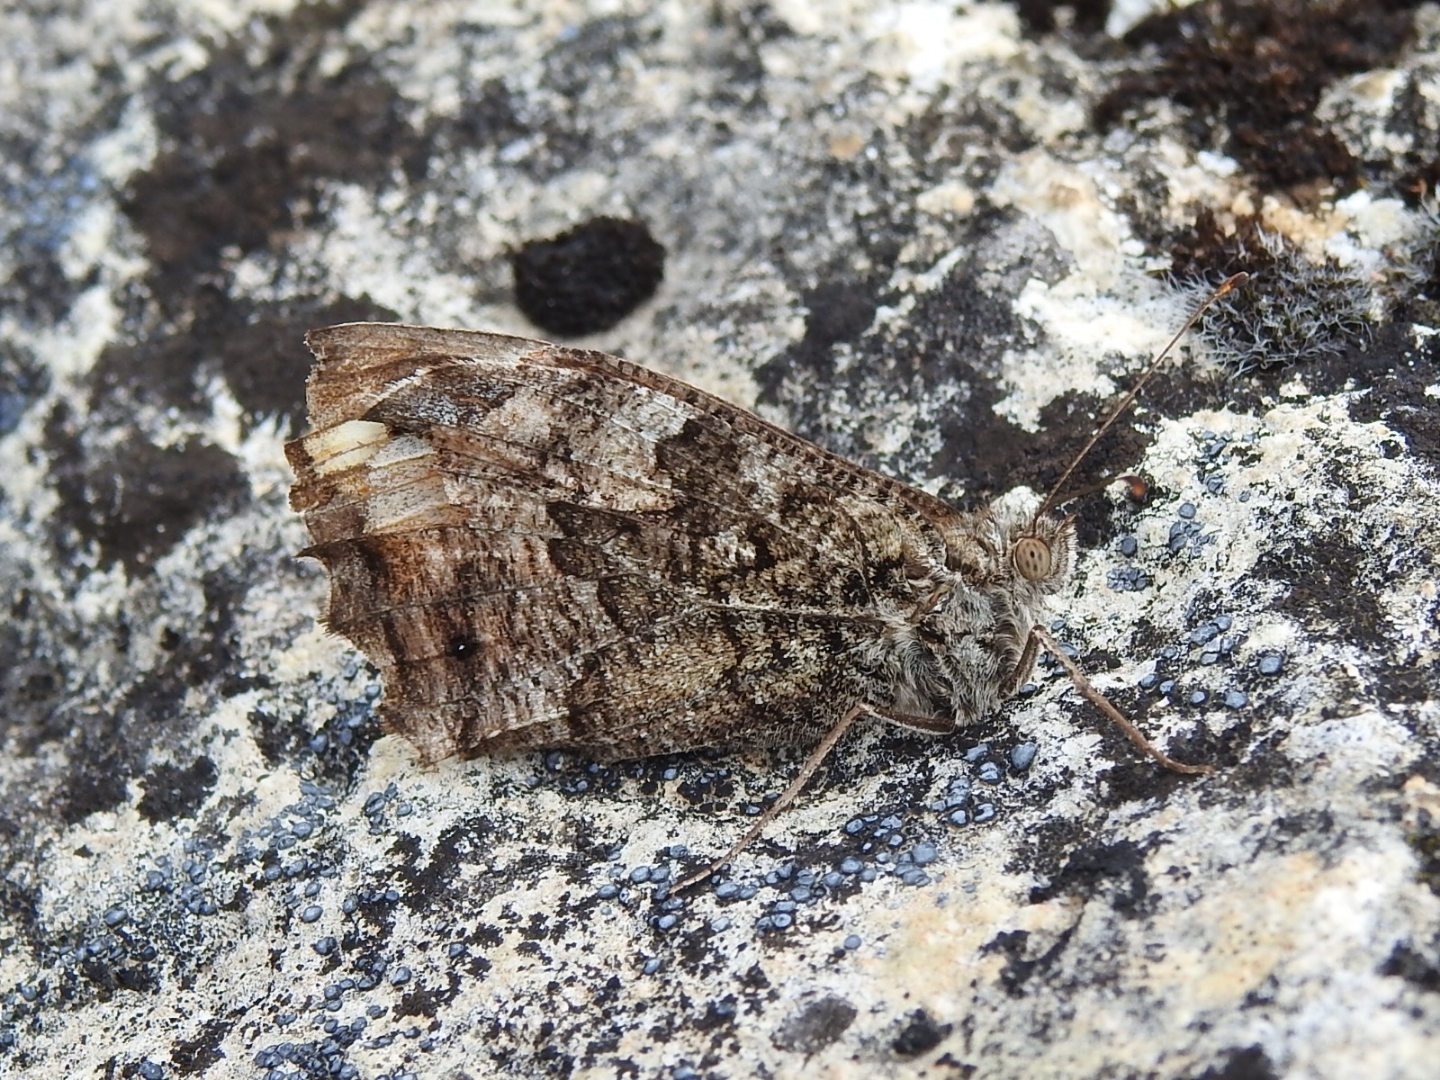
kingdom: Animalia
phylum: Arthropoda
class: Insecta
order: Lepidoptera
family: Nymphalidae
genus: Hipparchia
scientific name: Hipparchia semele
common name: Grayling
